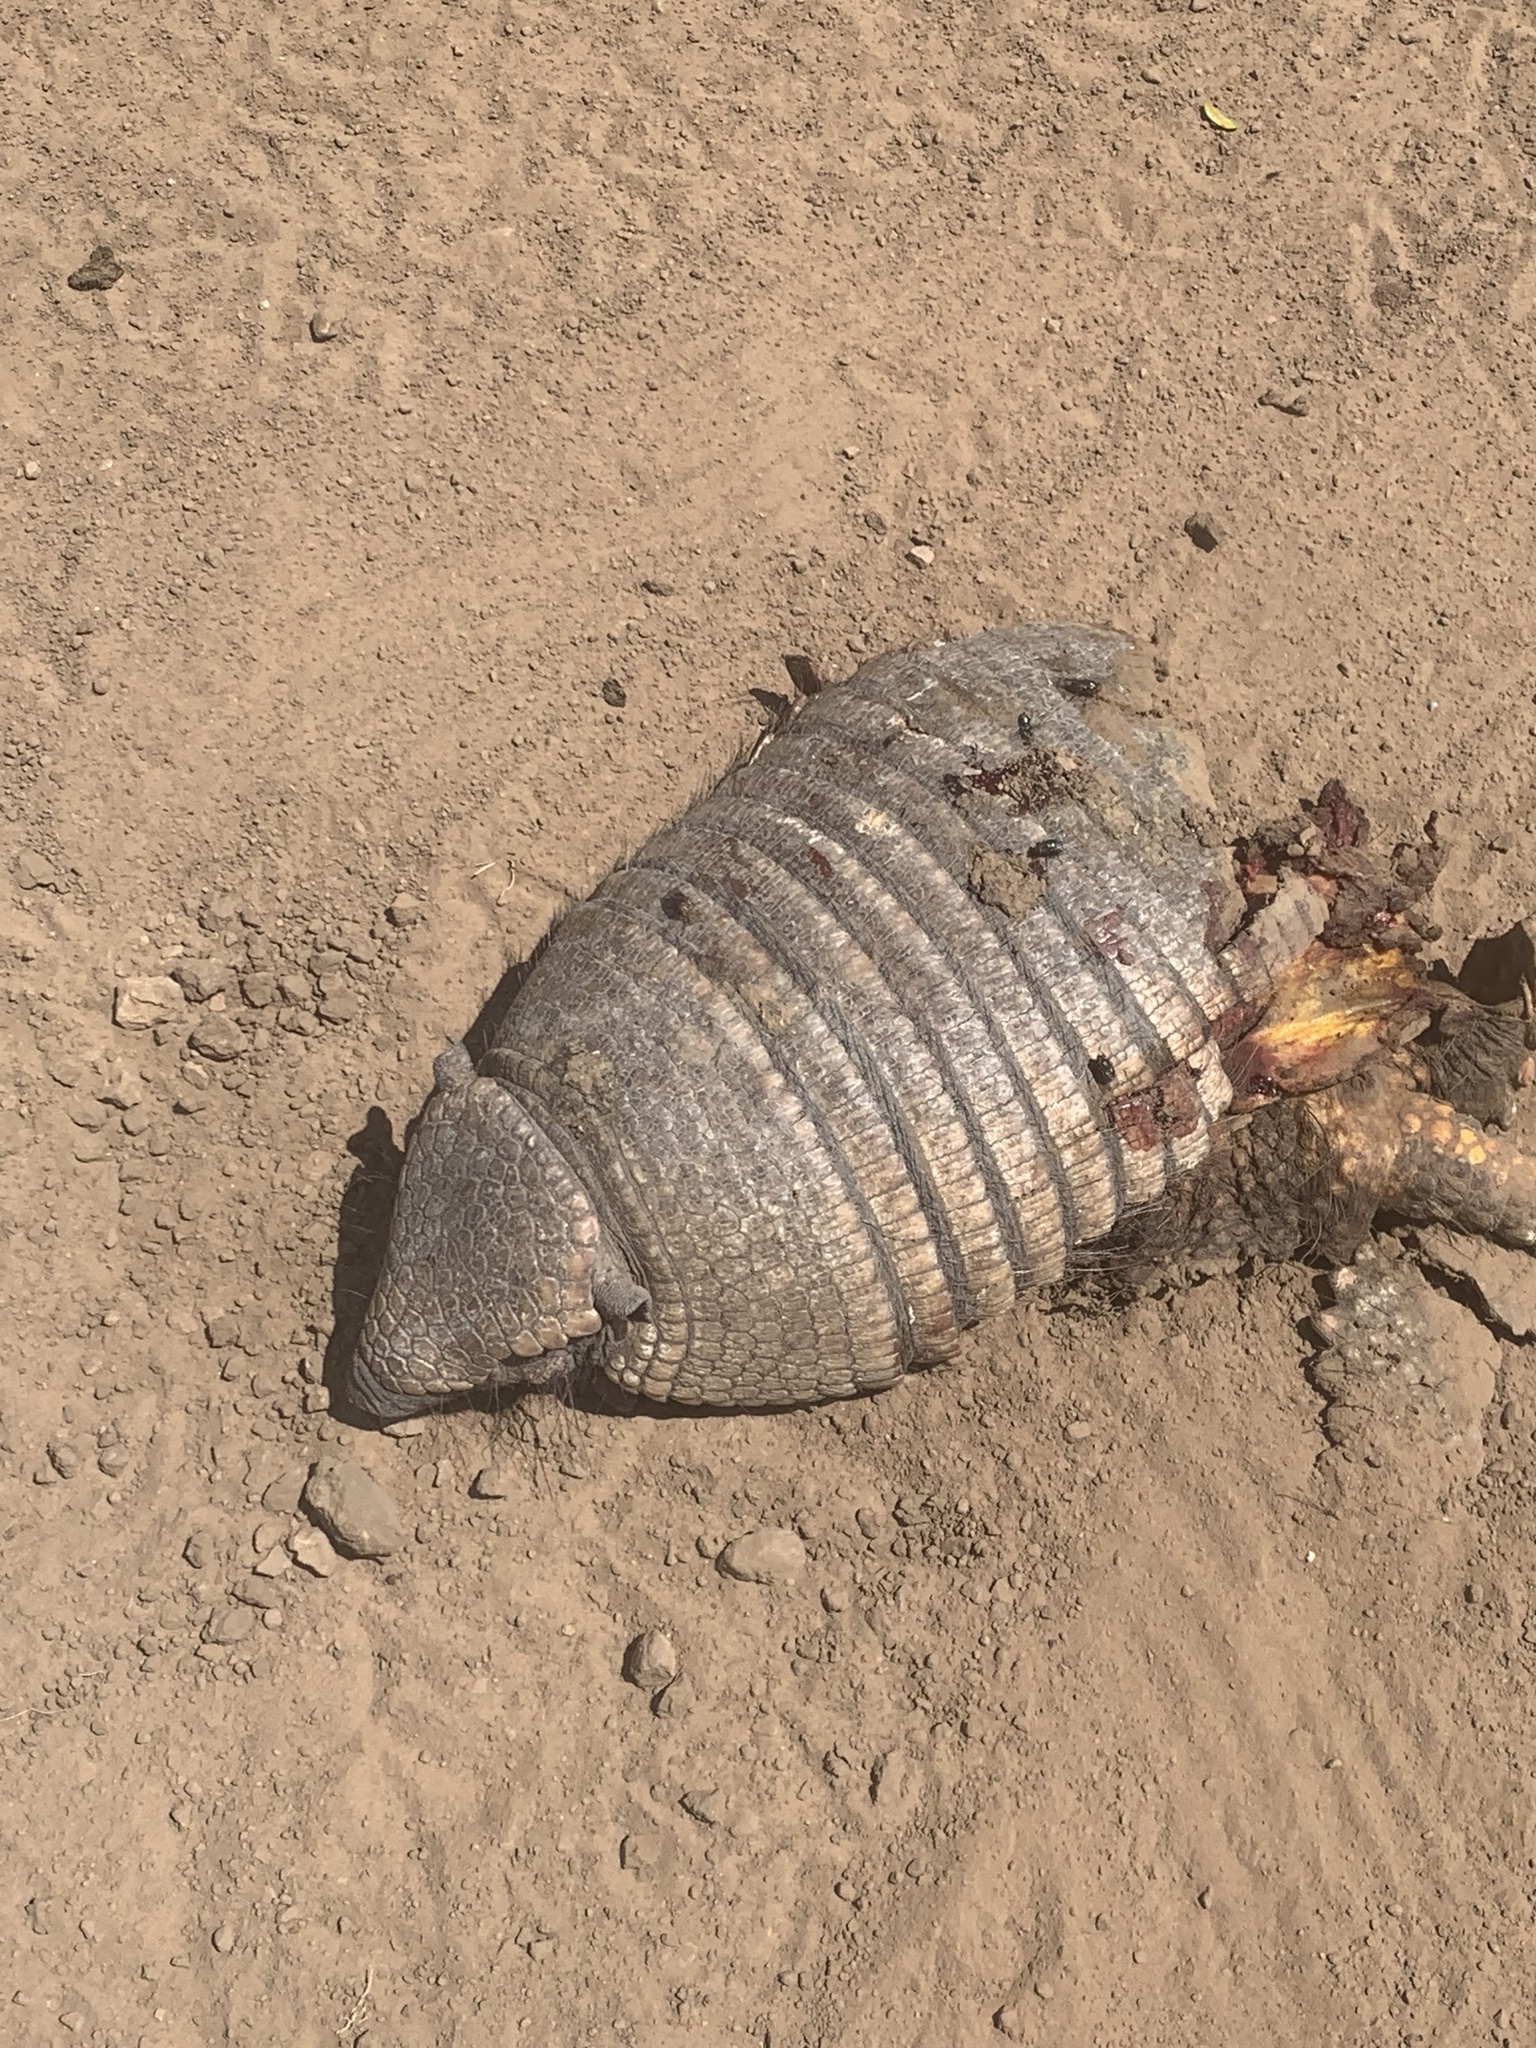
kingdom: Animalia
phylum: Chordata
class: Mammalia
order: Cingulata
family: Dasypodidae
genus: Chaetophractus
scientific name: Chaetophractus villosus
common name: Big hairy armadillo
